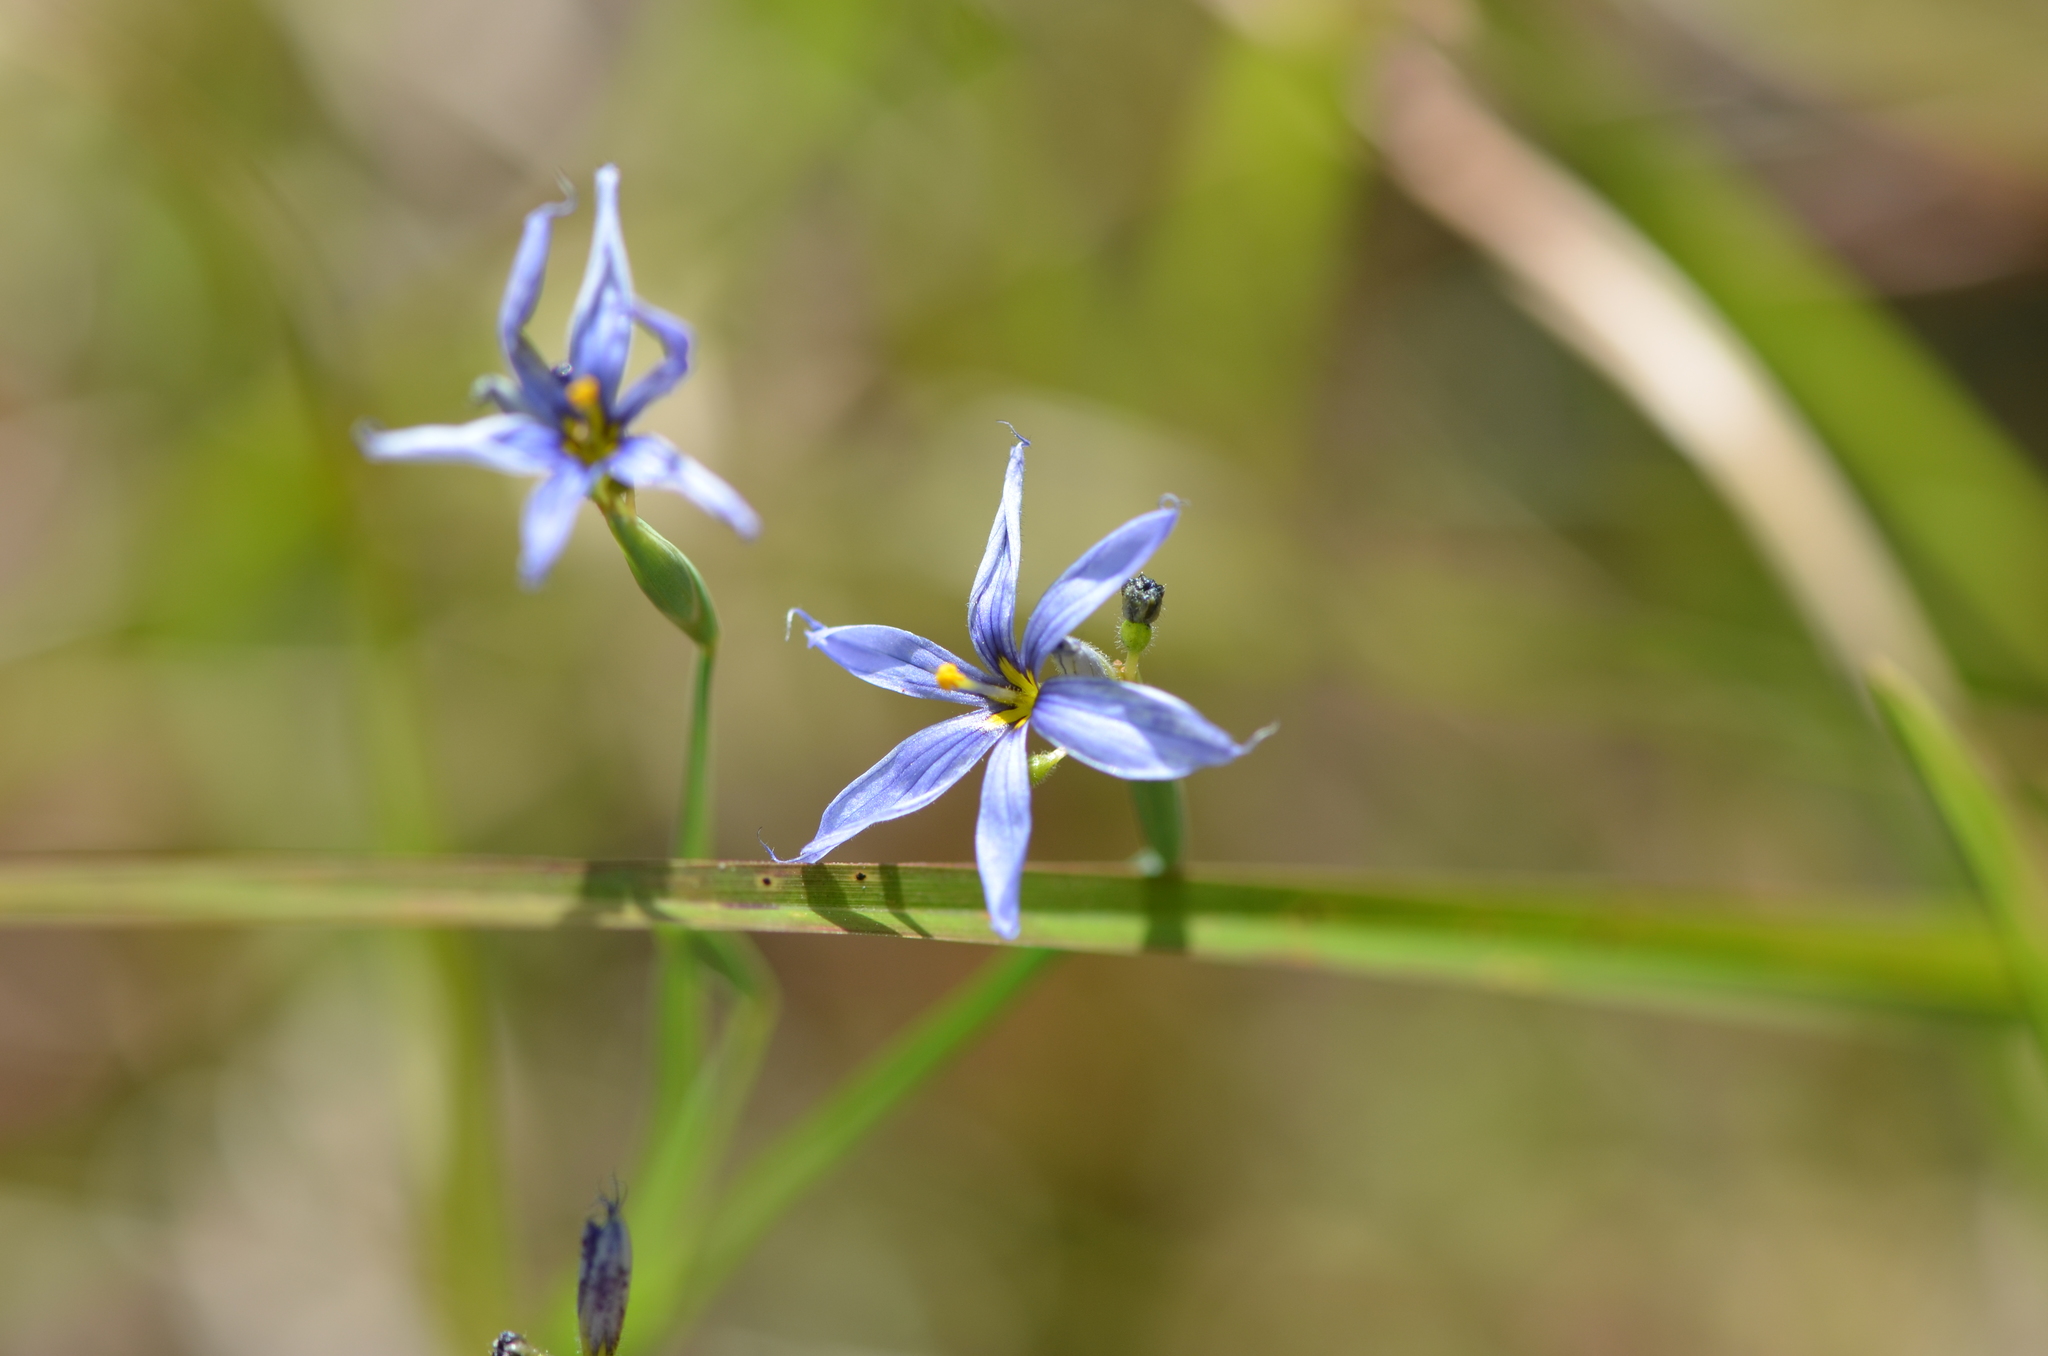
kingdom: Plantae
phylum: Tracheophyta
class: Liliopsida
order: Asparagales
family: Iridaceae
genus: Sisyrinchium
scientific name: Sisyrinchium angustifolium
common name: Narrow-leaf blue-eyed-grass
